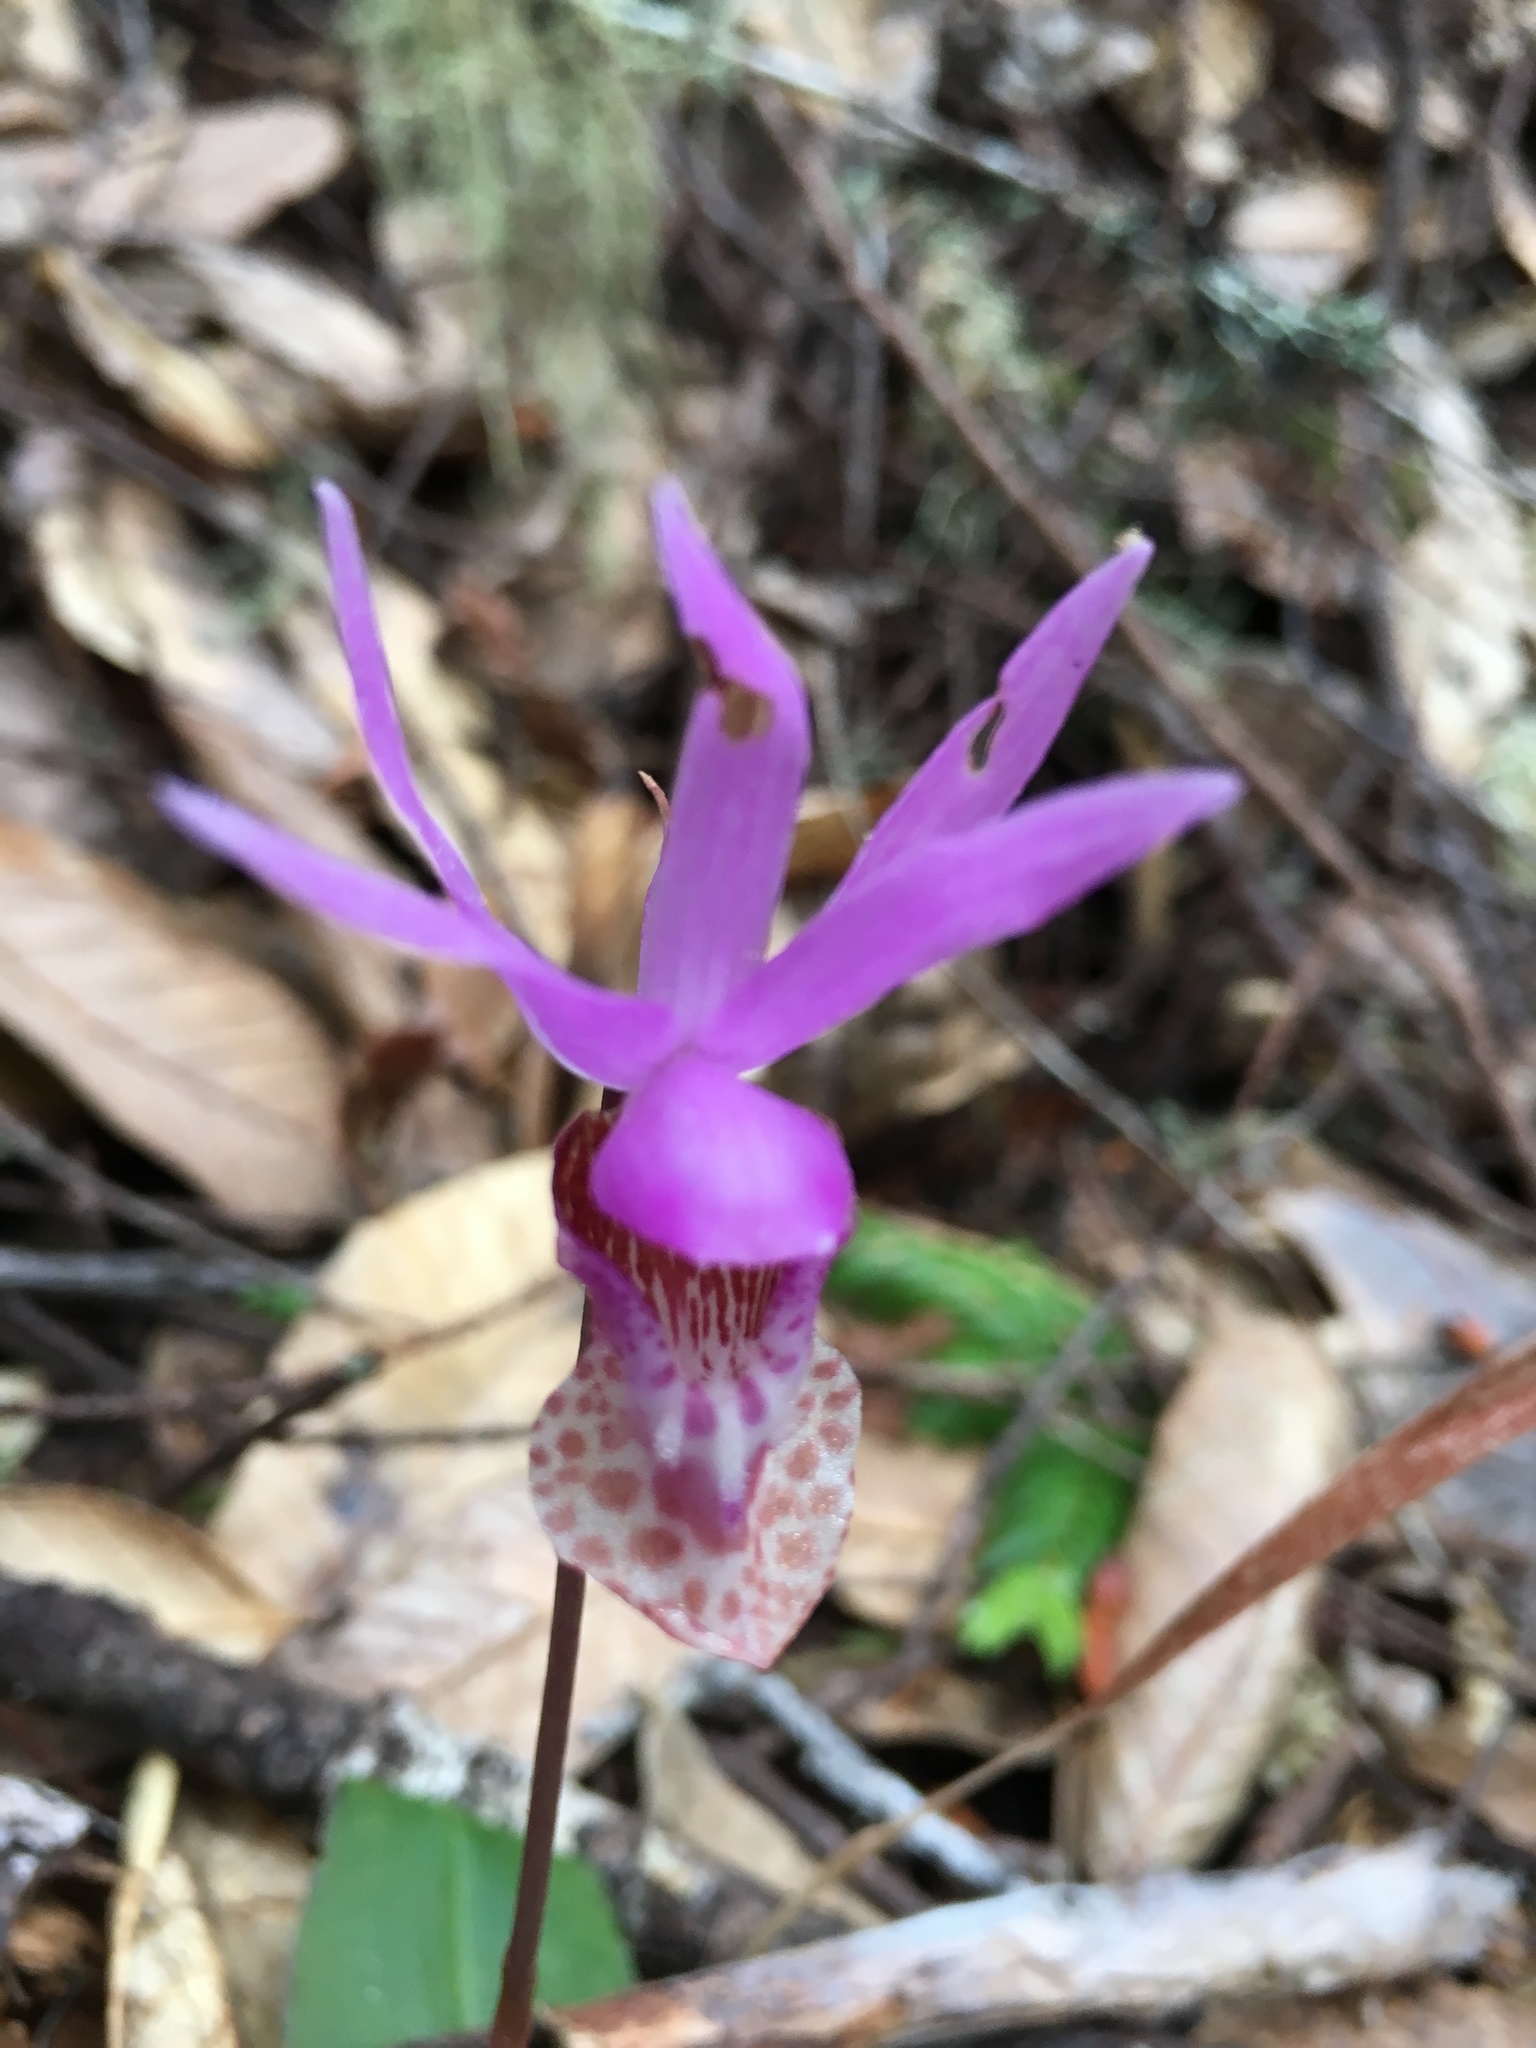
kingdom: Plantae
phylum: Tracheophyta
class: Liliopsida
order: Asparagales
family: Orchidaceae
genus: Calypso
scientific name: Calypso bulbosa
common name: Calypso
